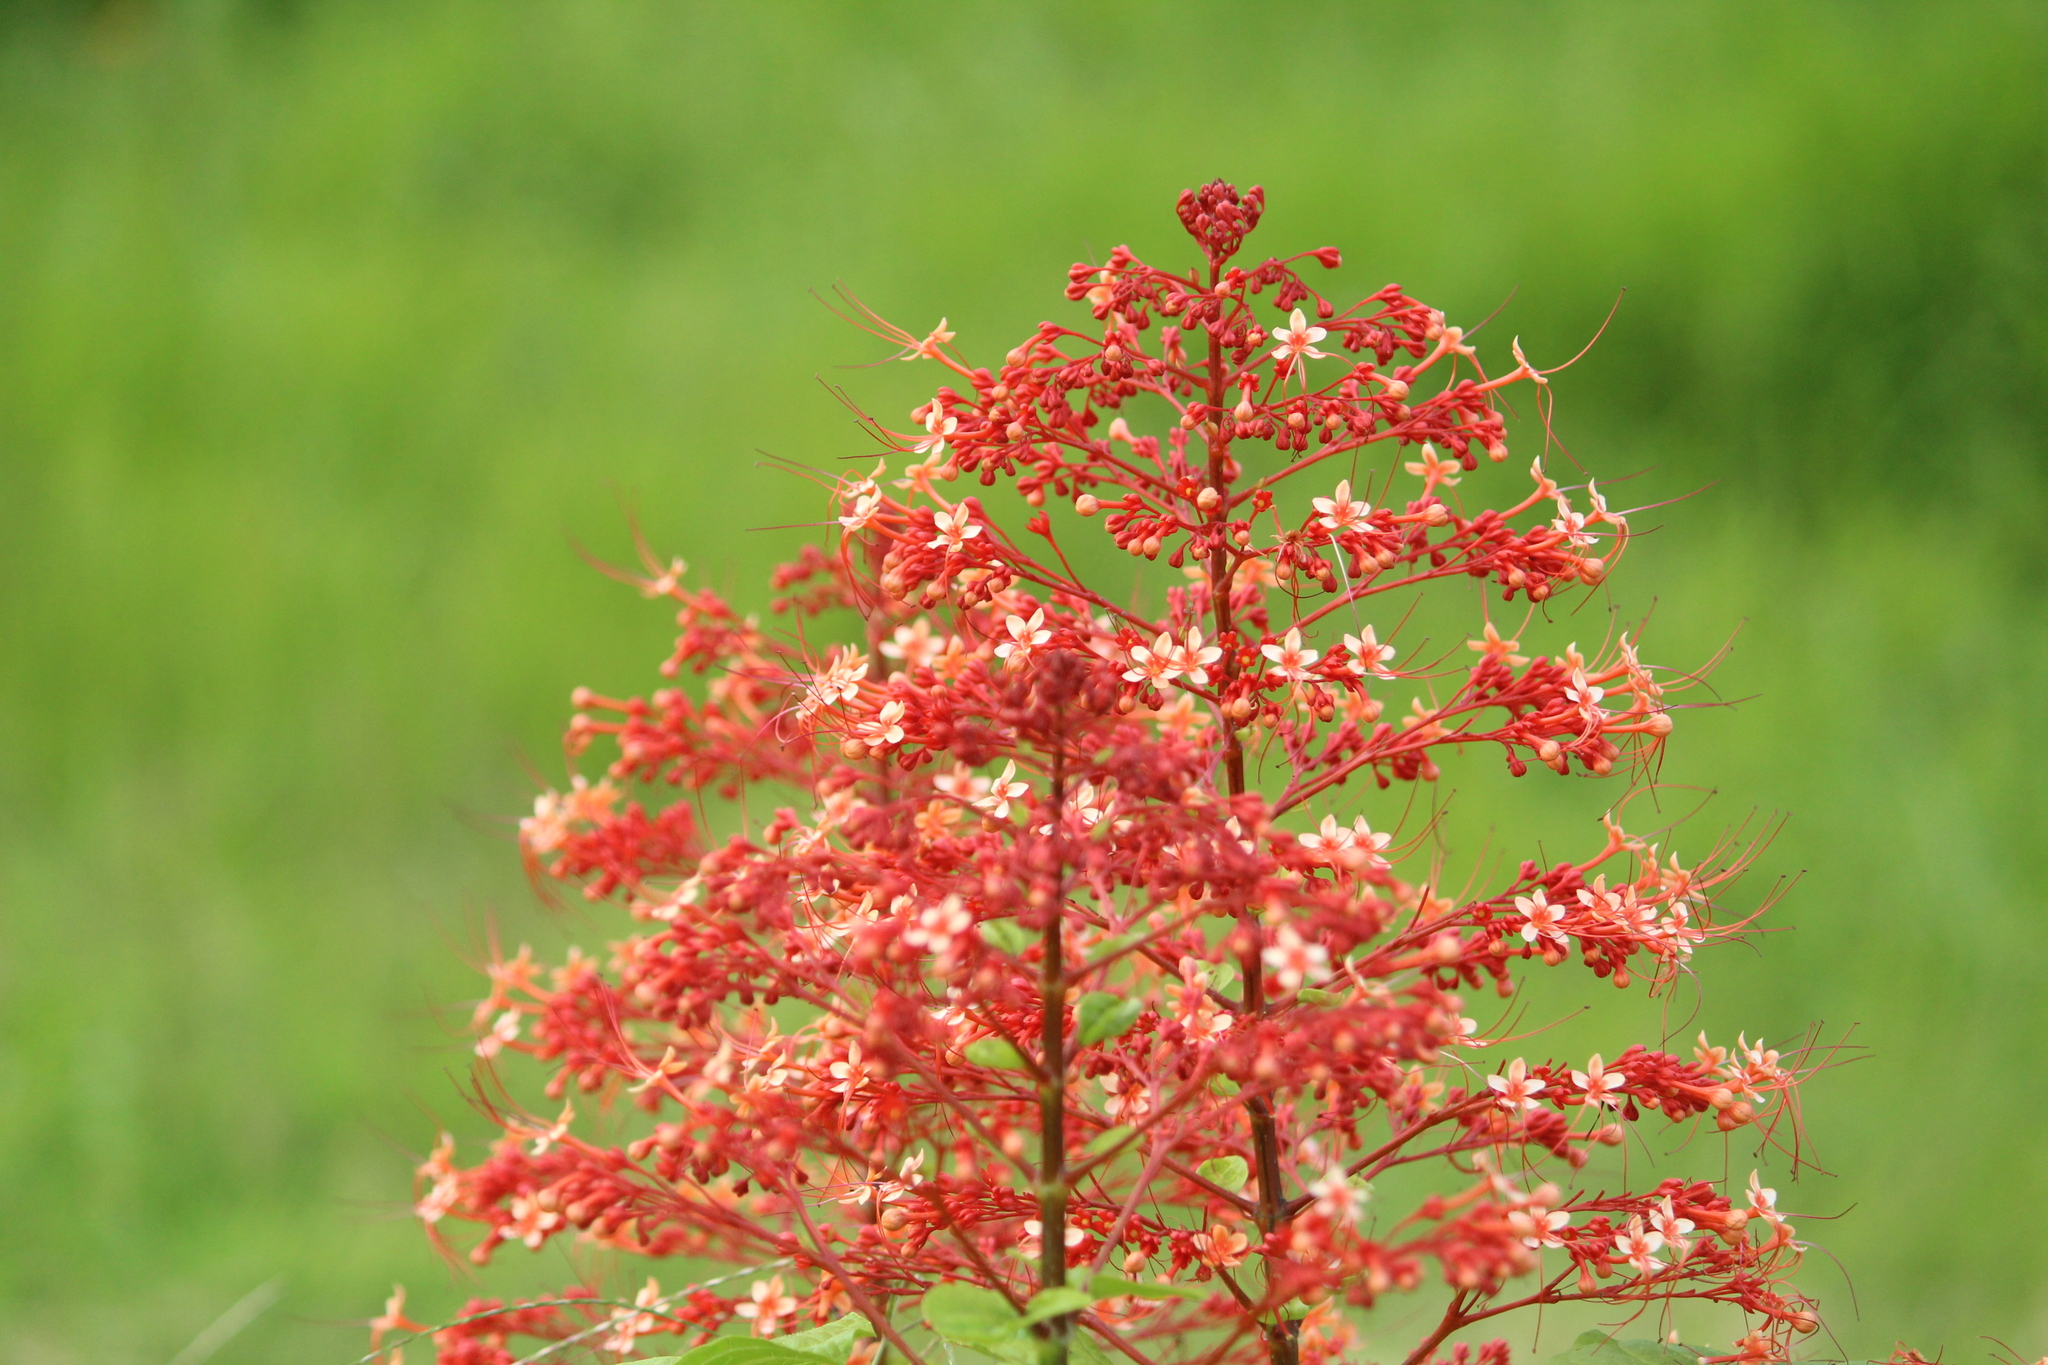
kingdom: Plantae
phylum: Tracheophyta
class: Magnoliopsida
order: Lamiales
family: Lamiaceae
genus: Clerodendrum
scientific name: Clerodendrum paniculatum
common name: Pagoda-flower
